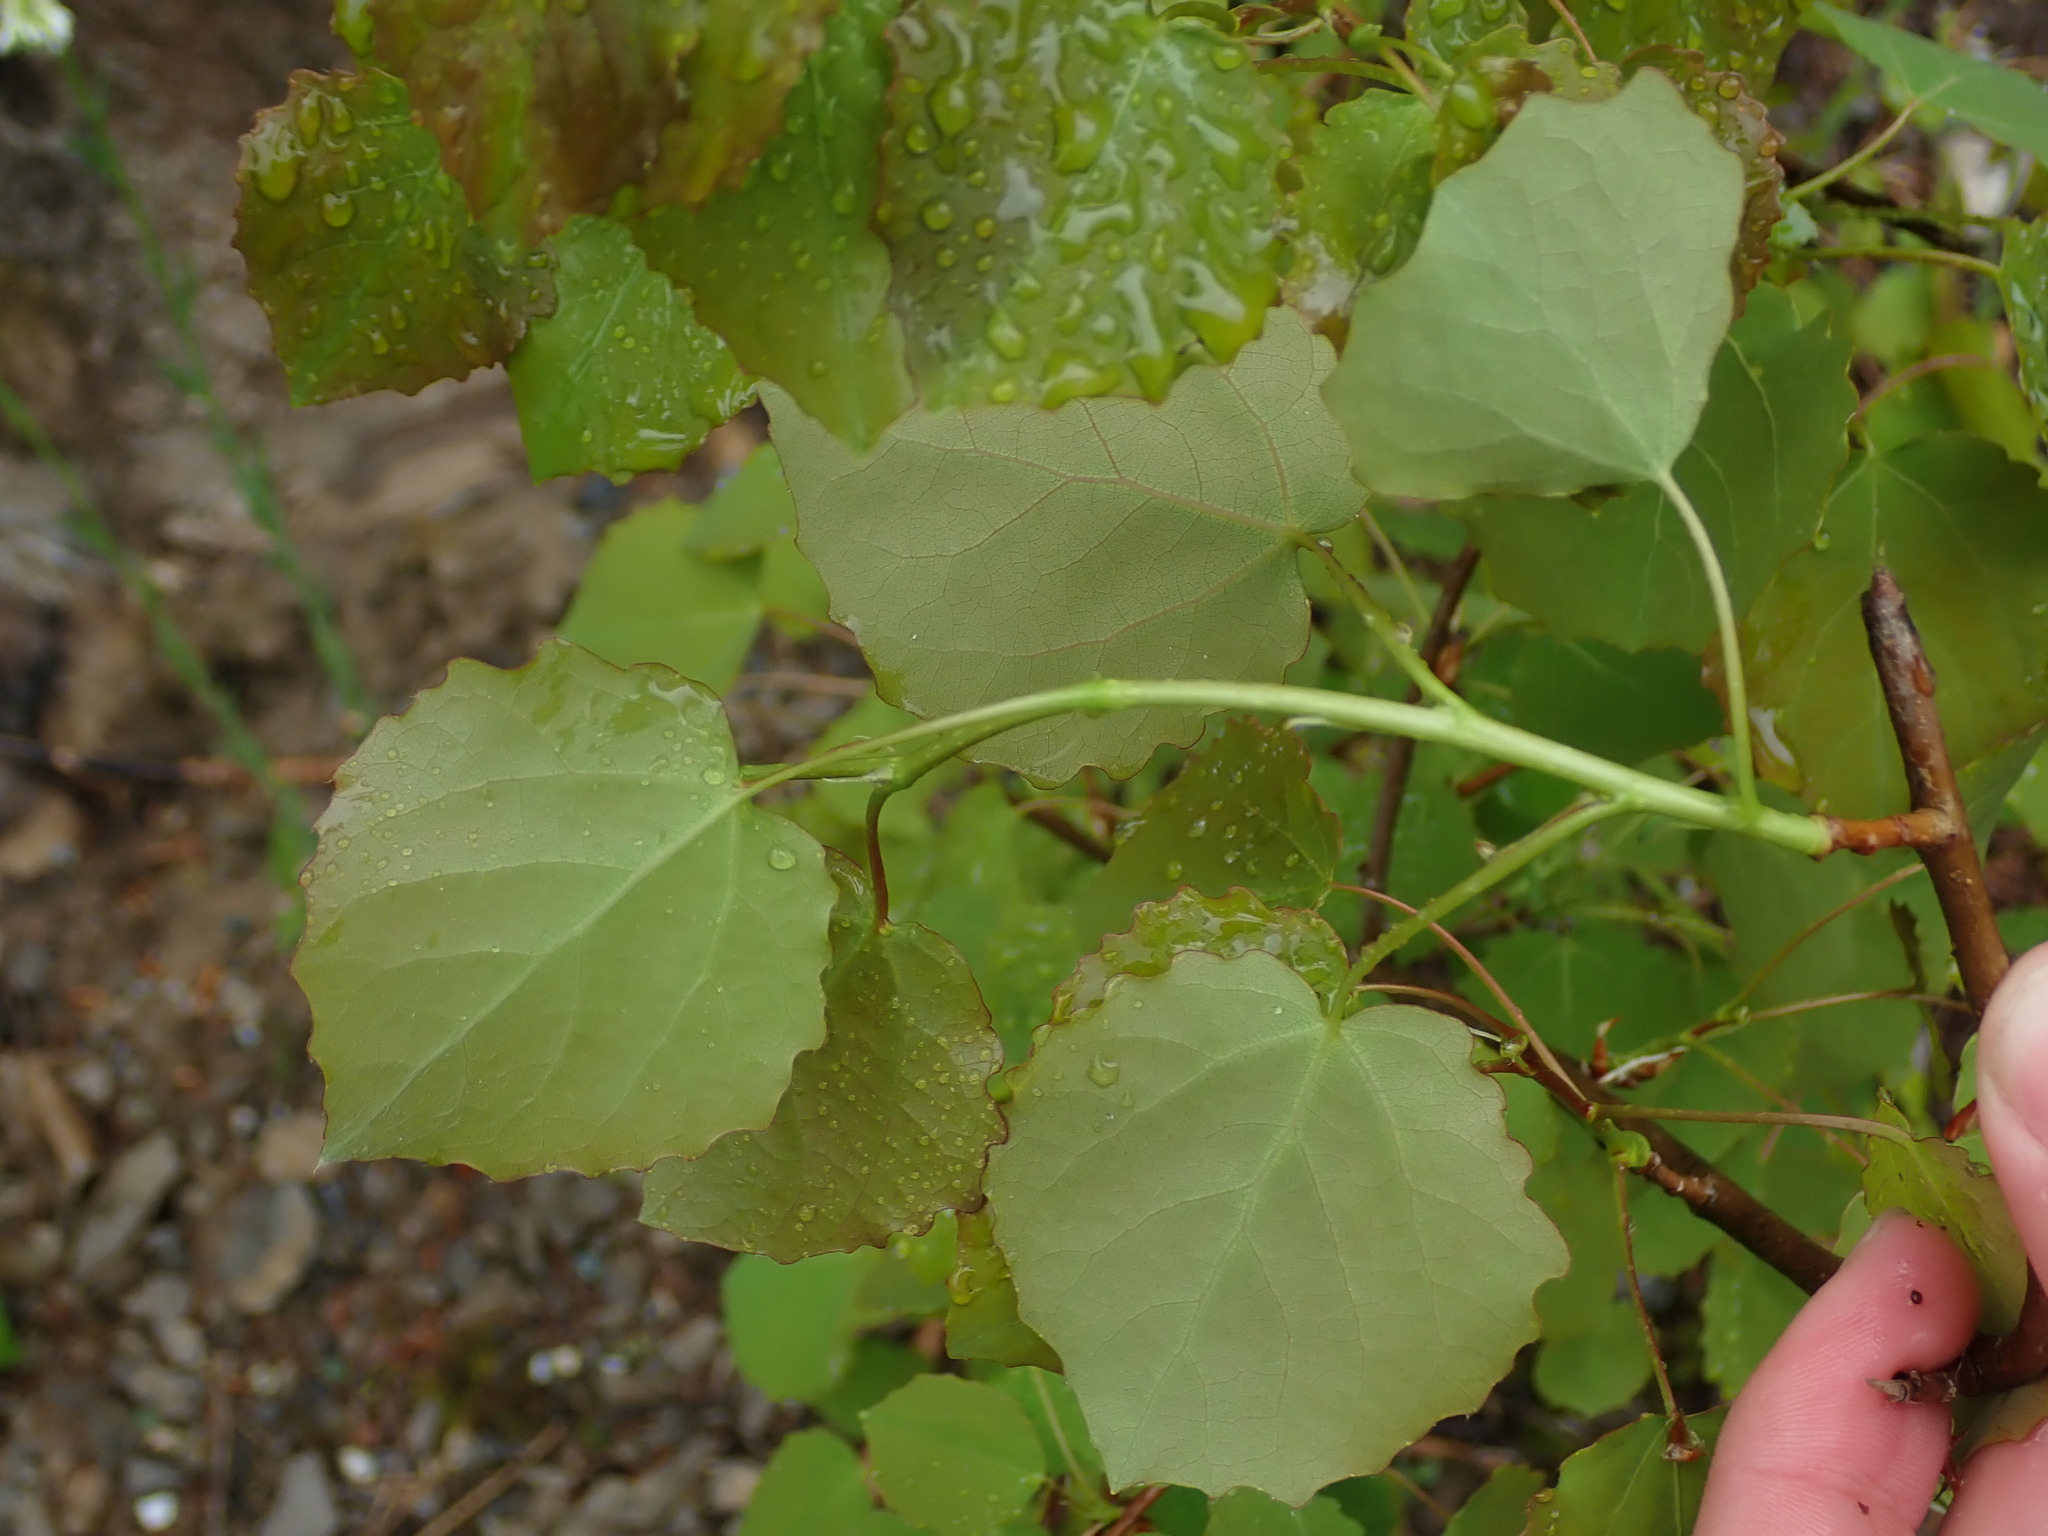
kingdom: Plantae
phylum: Tracheophyta
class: Magnoliopsida
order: Malpighiales
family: Salicaceae
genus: Populus
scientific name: Populus tremula
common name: European aspen
